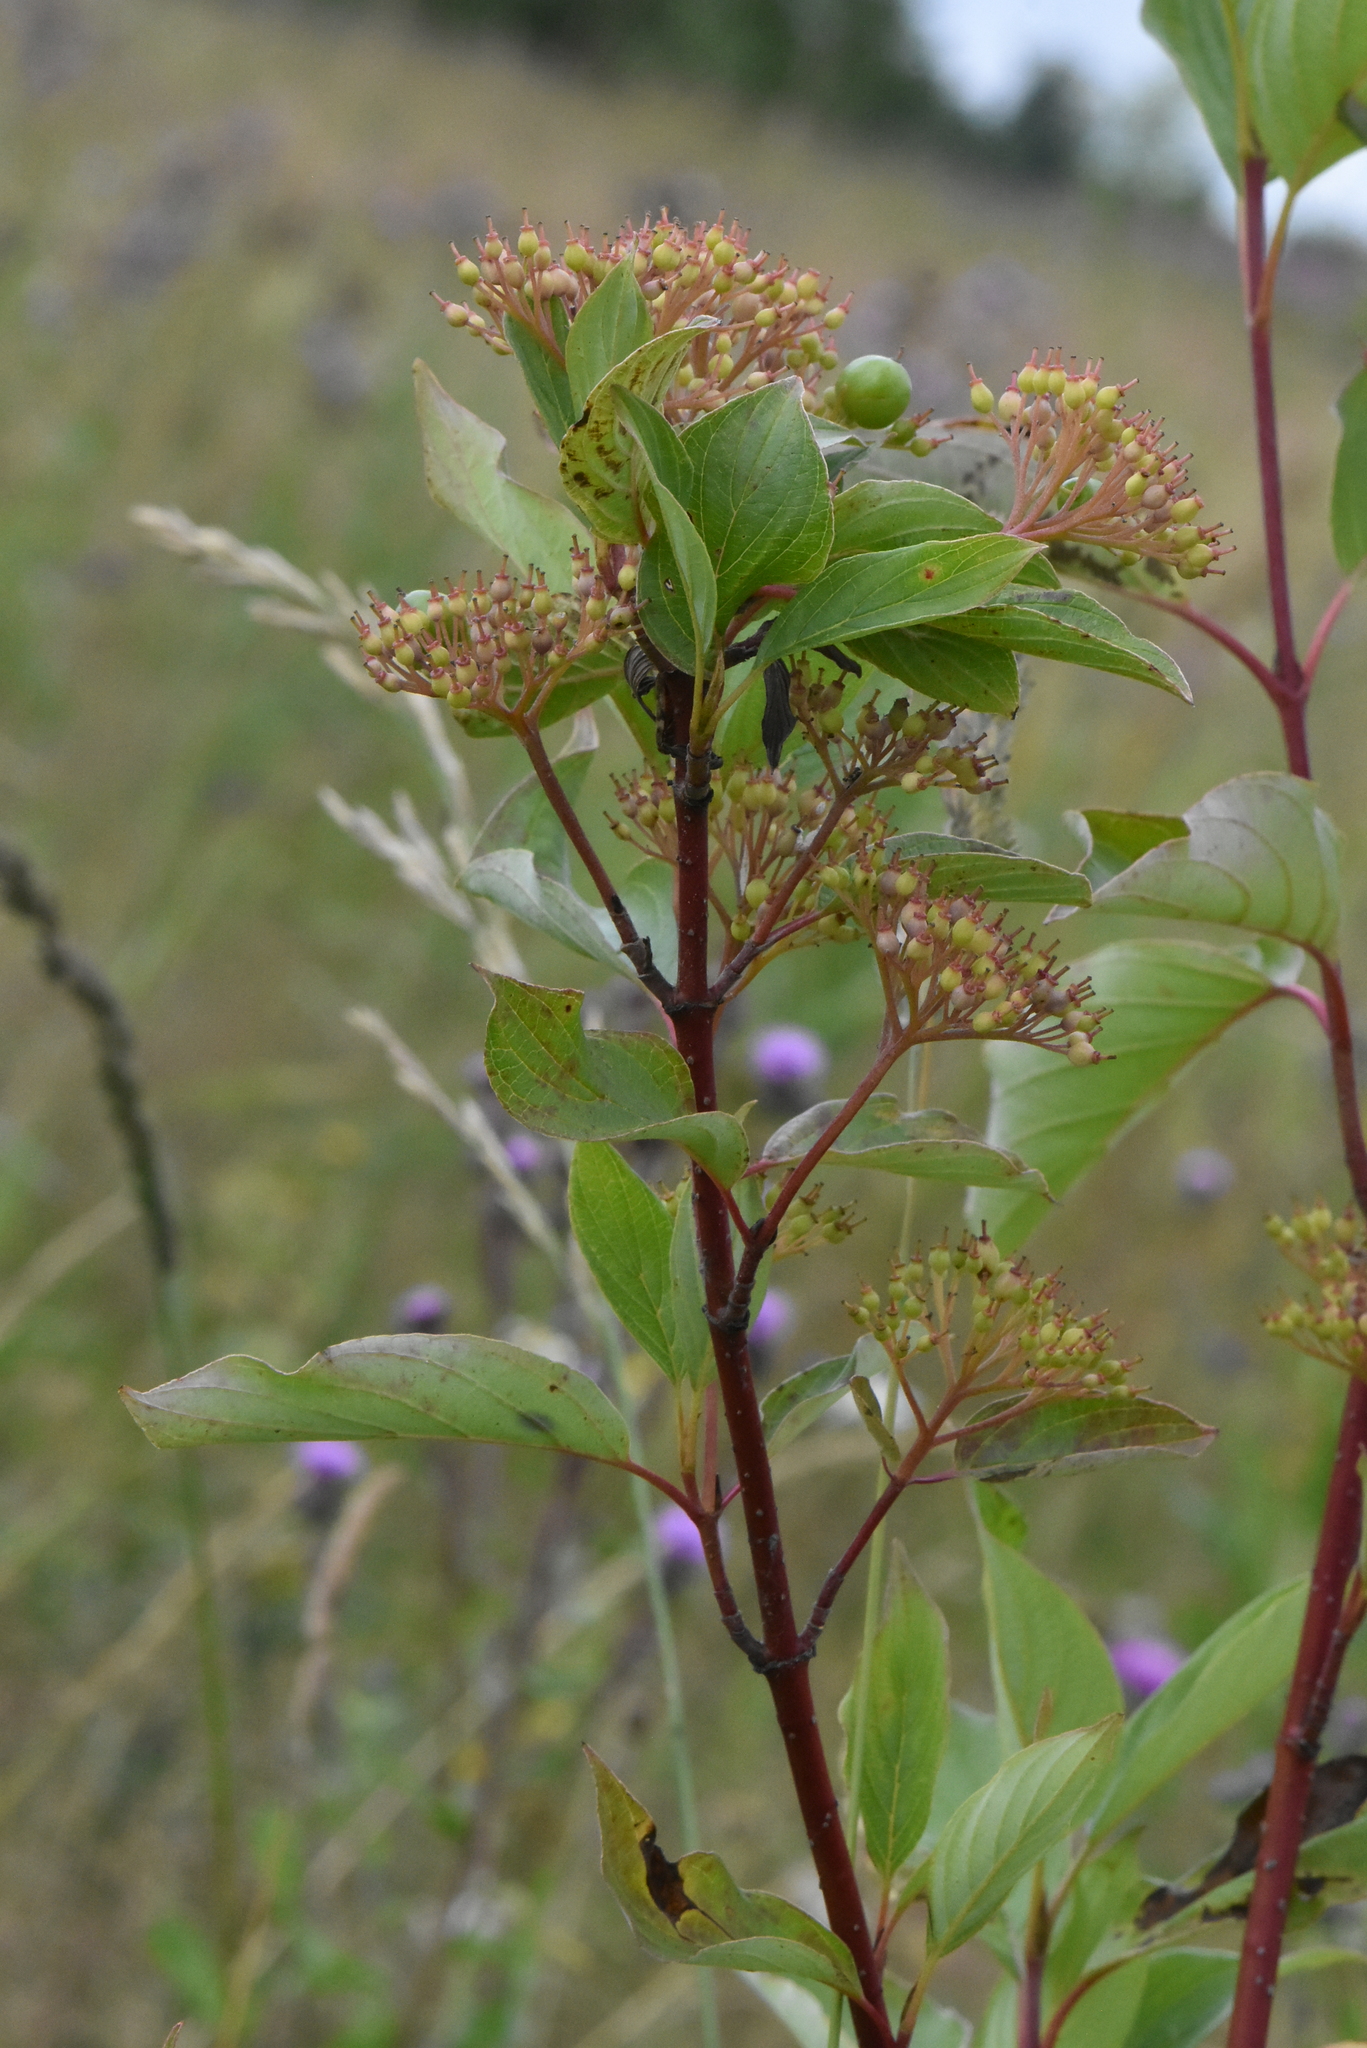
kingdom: Plantae
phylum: Tracheophyta
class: Magnoliopsida
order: Cornales
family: Cornaceae
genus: Cornus
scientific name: Cornus alba
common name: White dogwood
